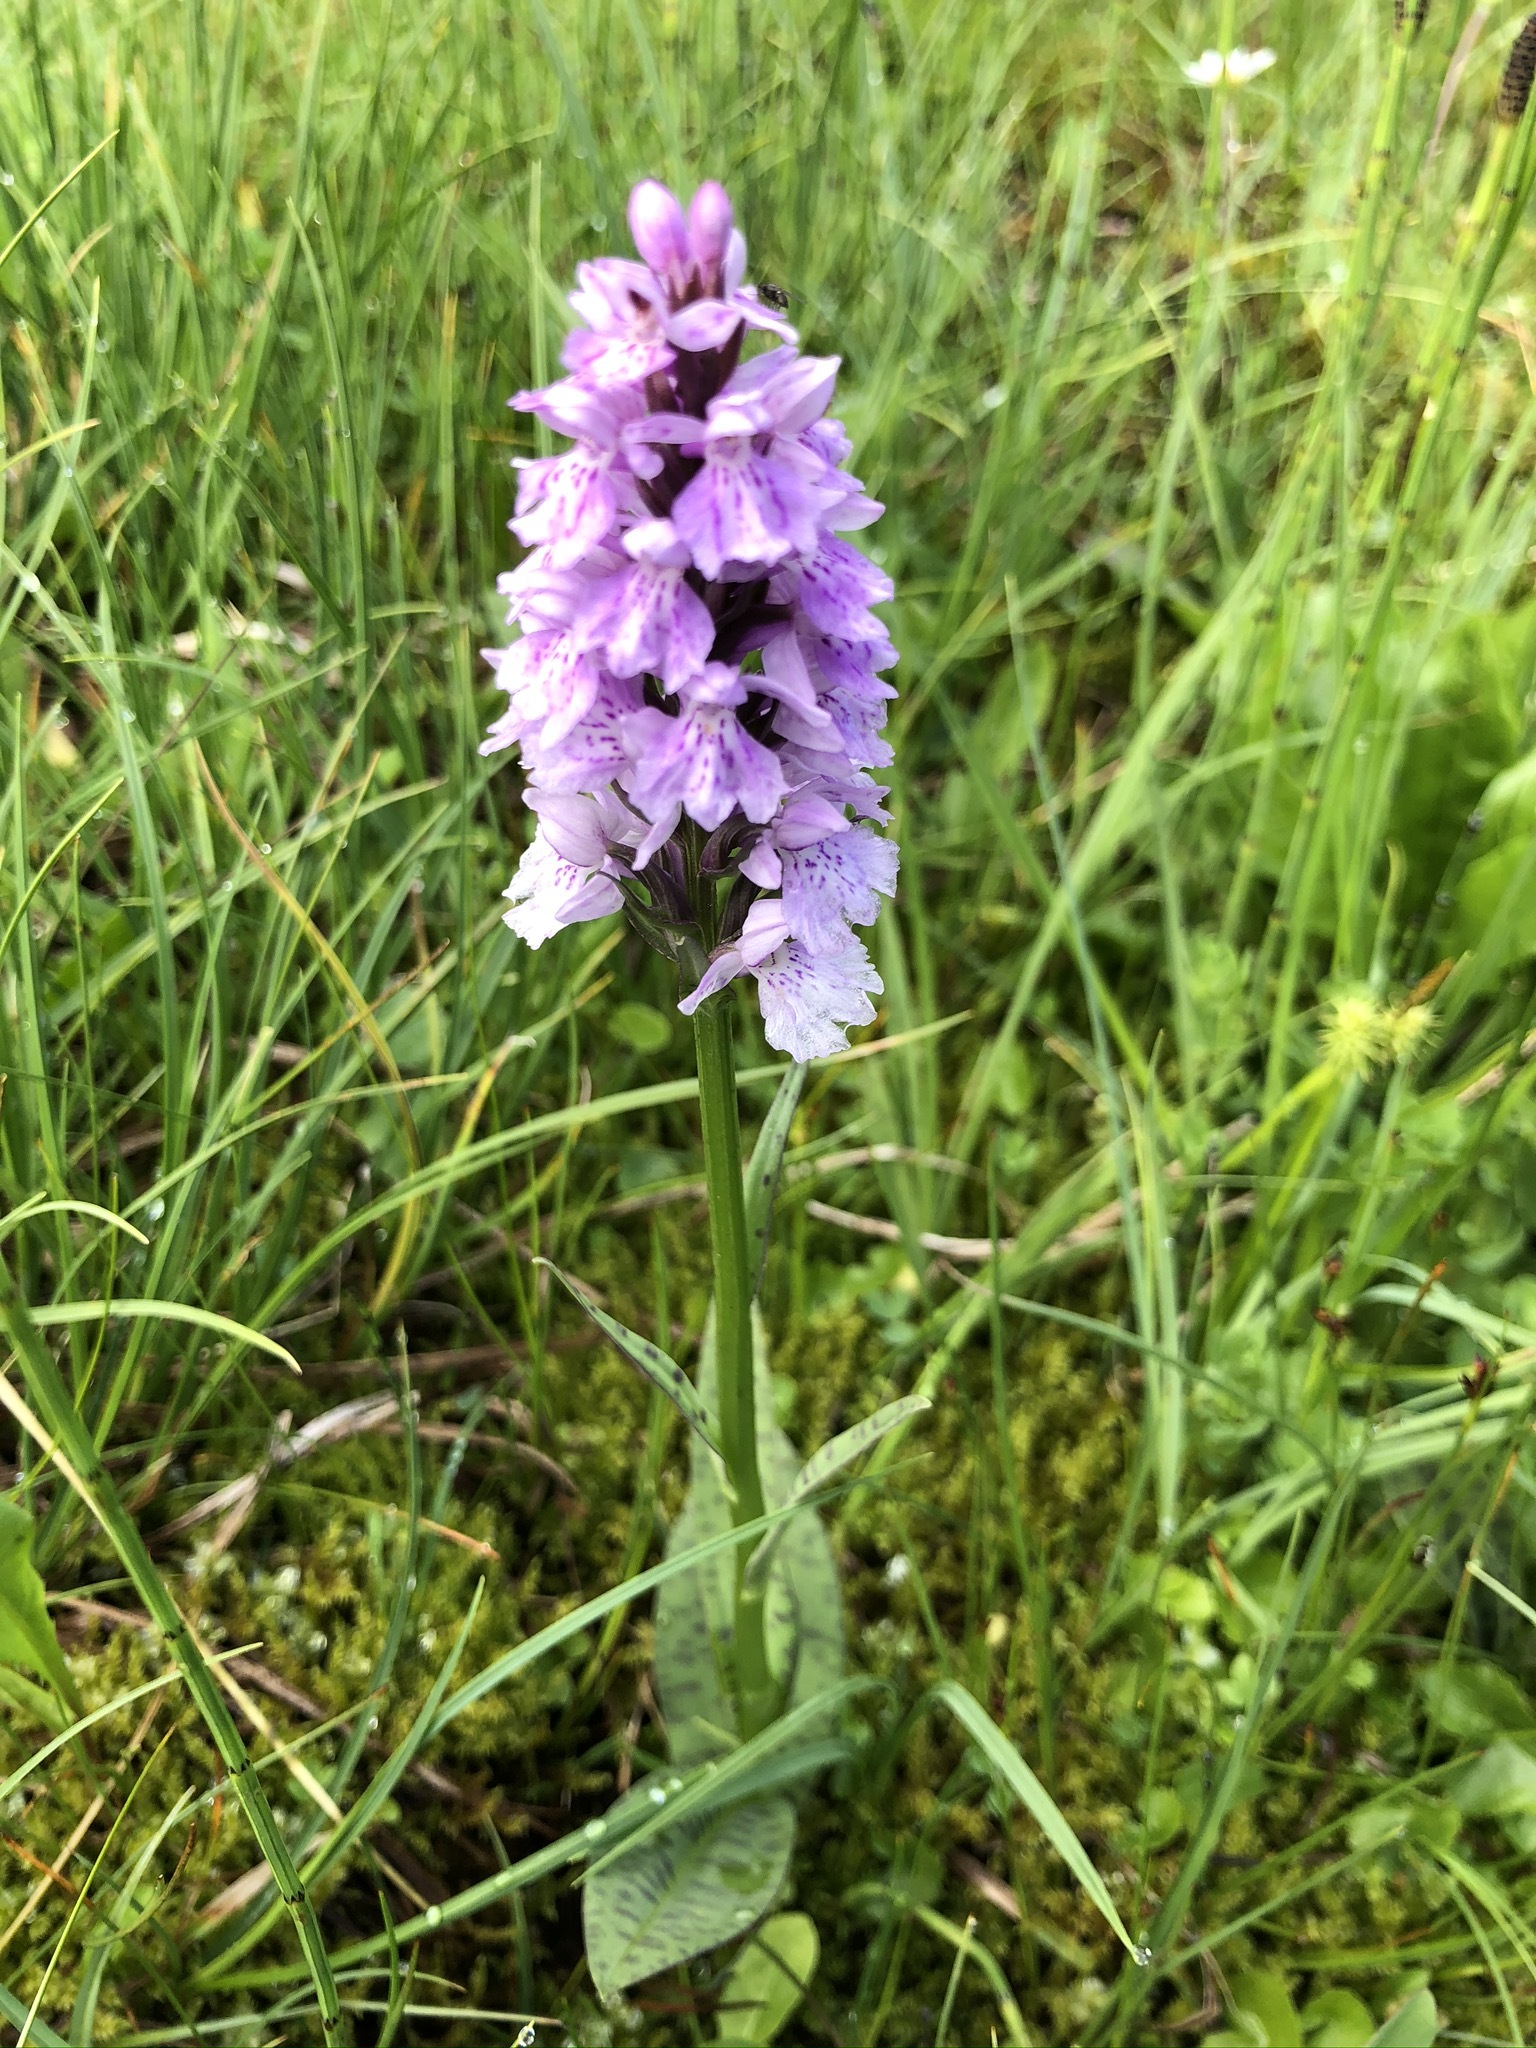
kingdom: Plantae
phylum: Tracheophyta
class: Liliopsida
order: Asparagales
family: Orchidaceae
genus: Dactylorhiza
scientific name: Dactylorhiza maculata
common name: Heath spotted-orchid
